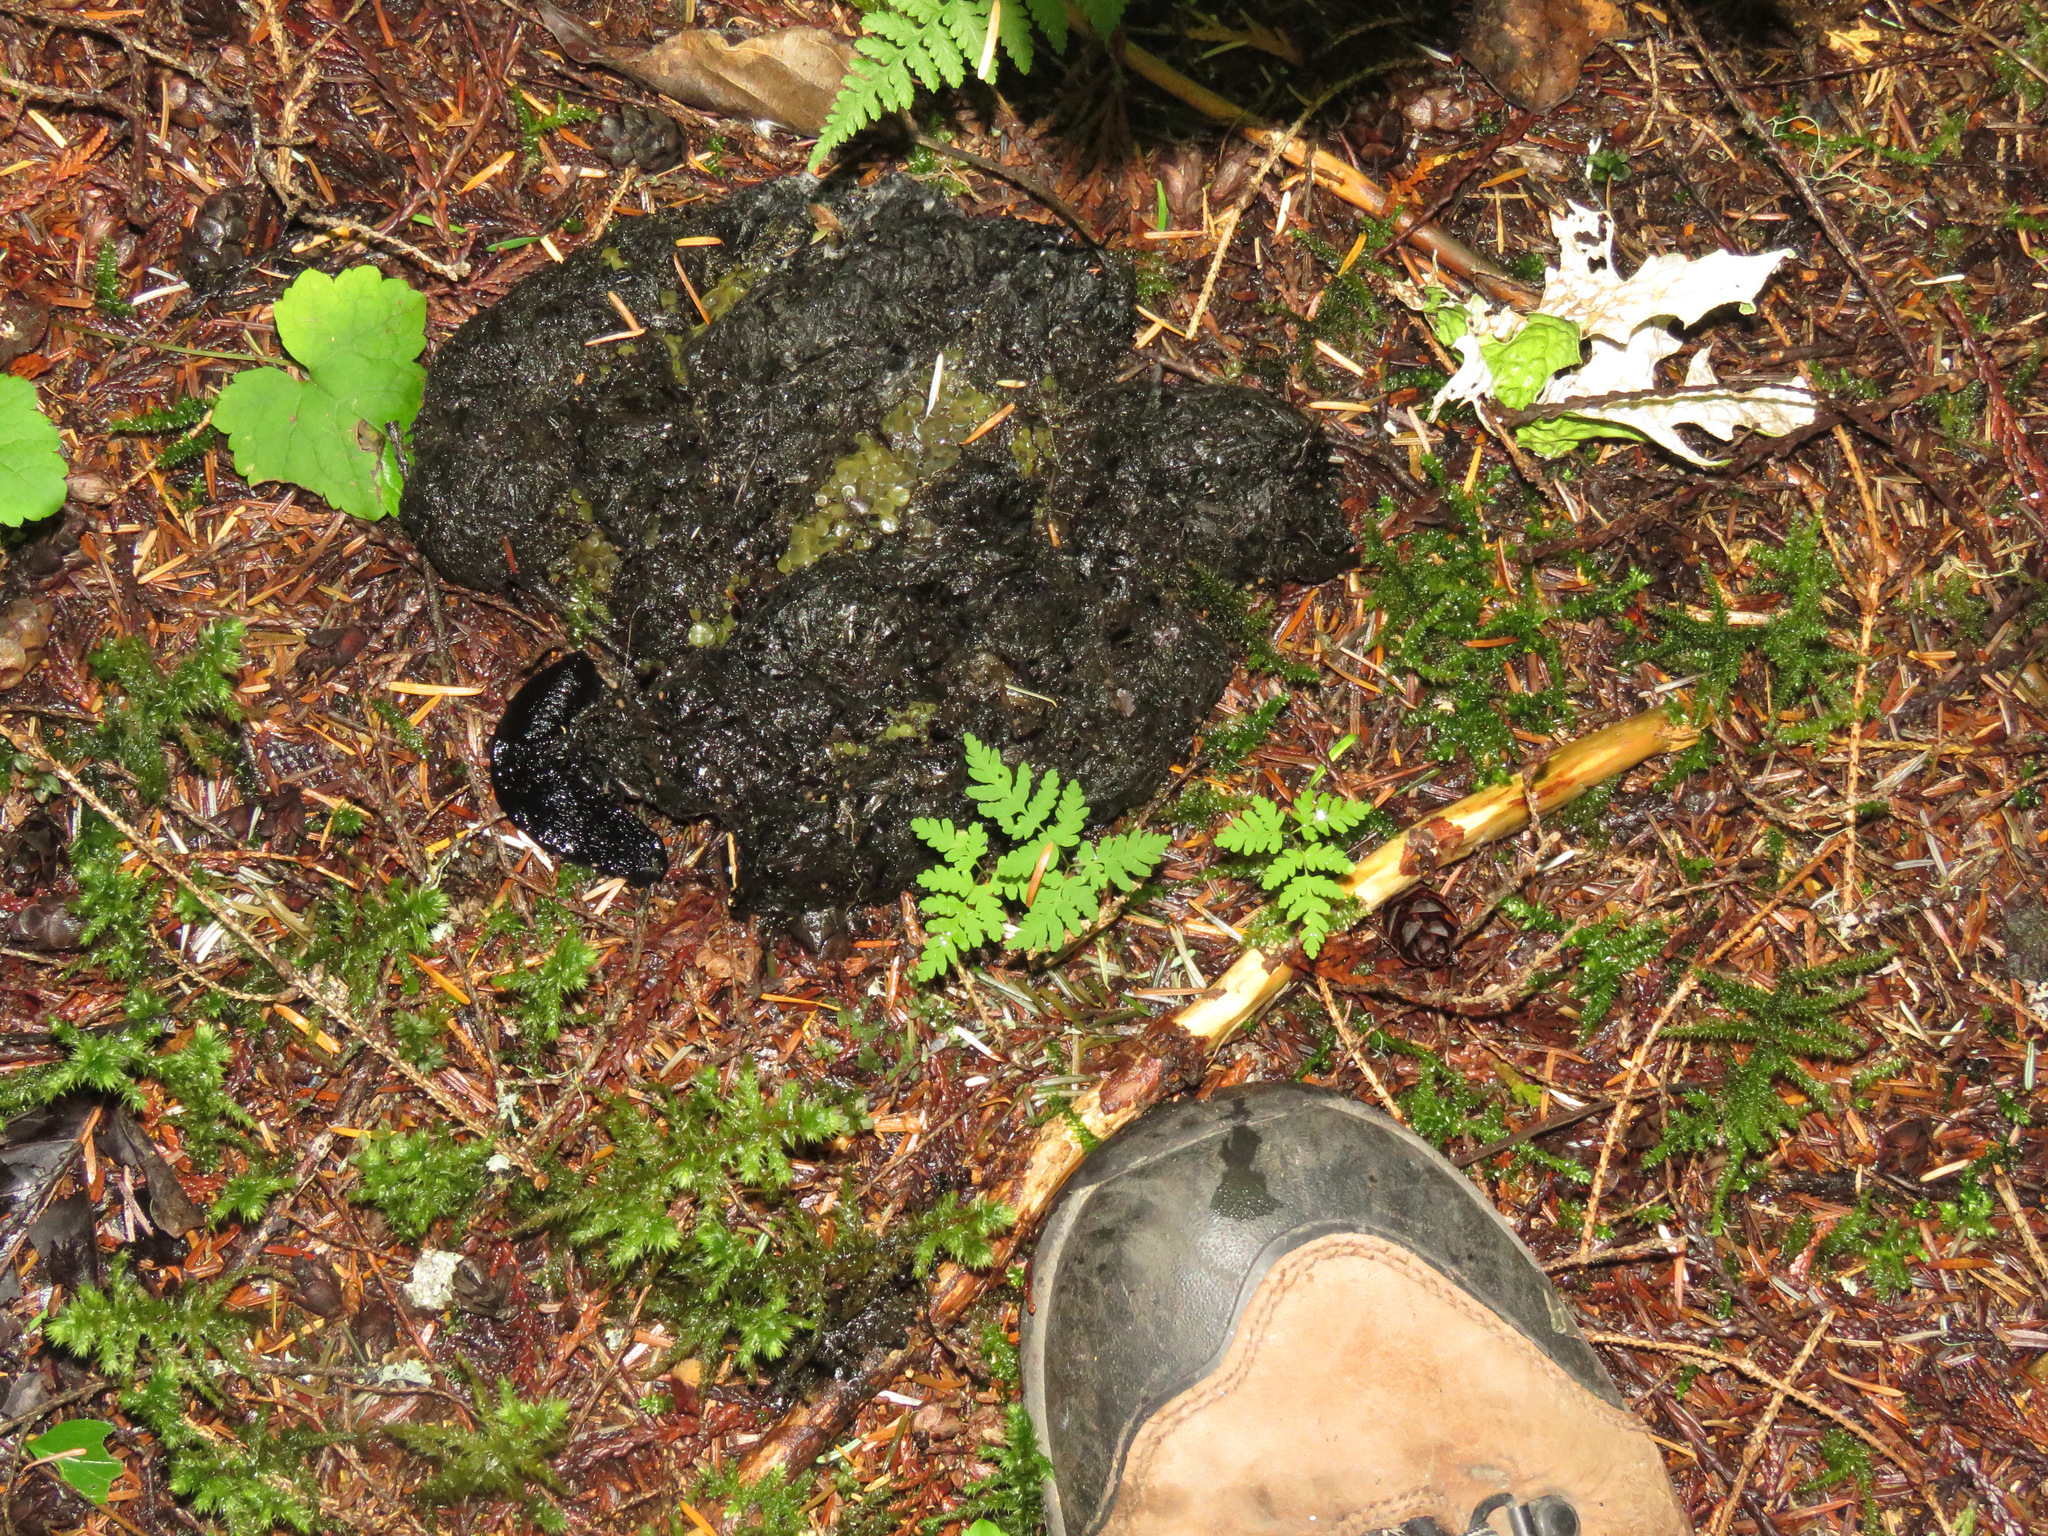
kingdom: Animalia
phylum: Chordata
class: Mammalia
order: Carnivora
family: Ursidae
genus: Ursus
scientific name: Ursus americanus
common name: American black bear
